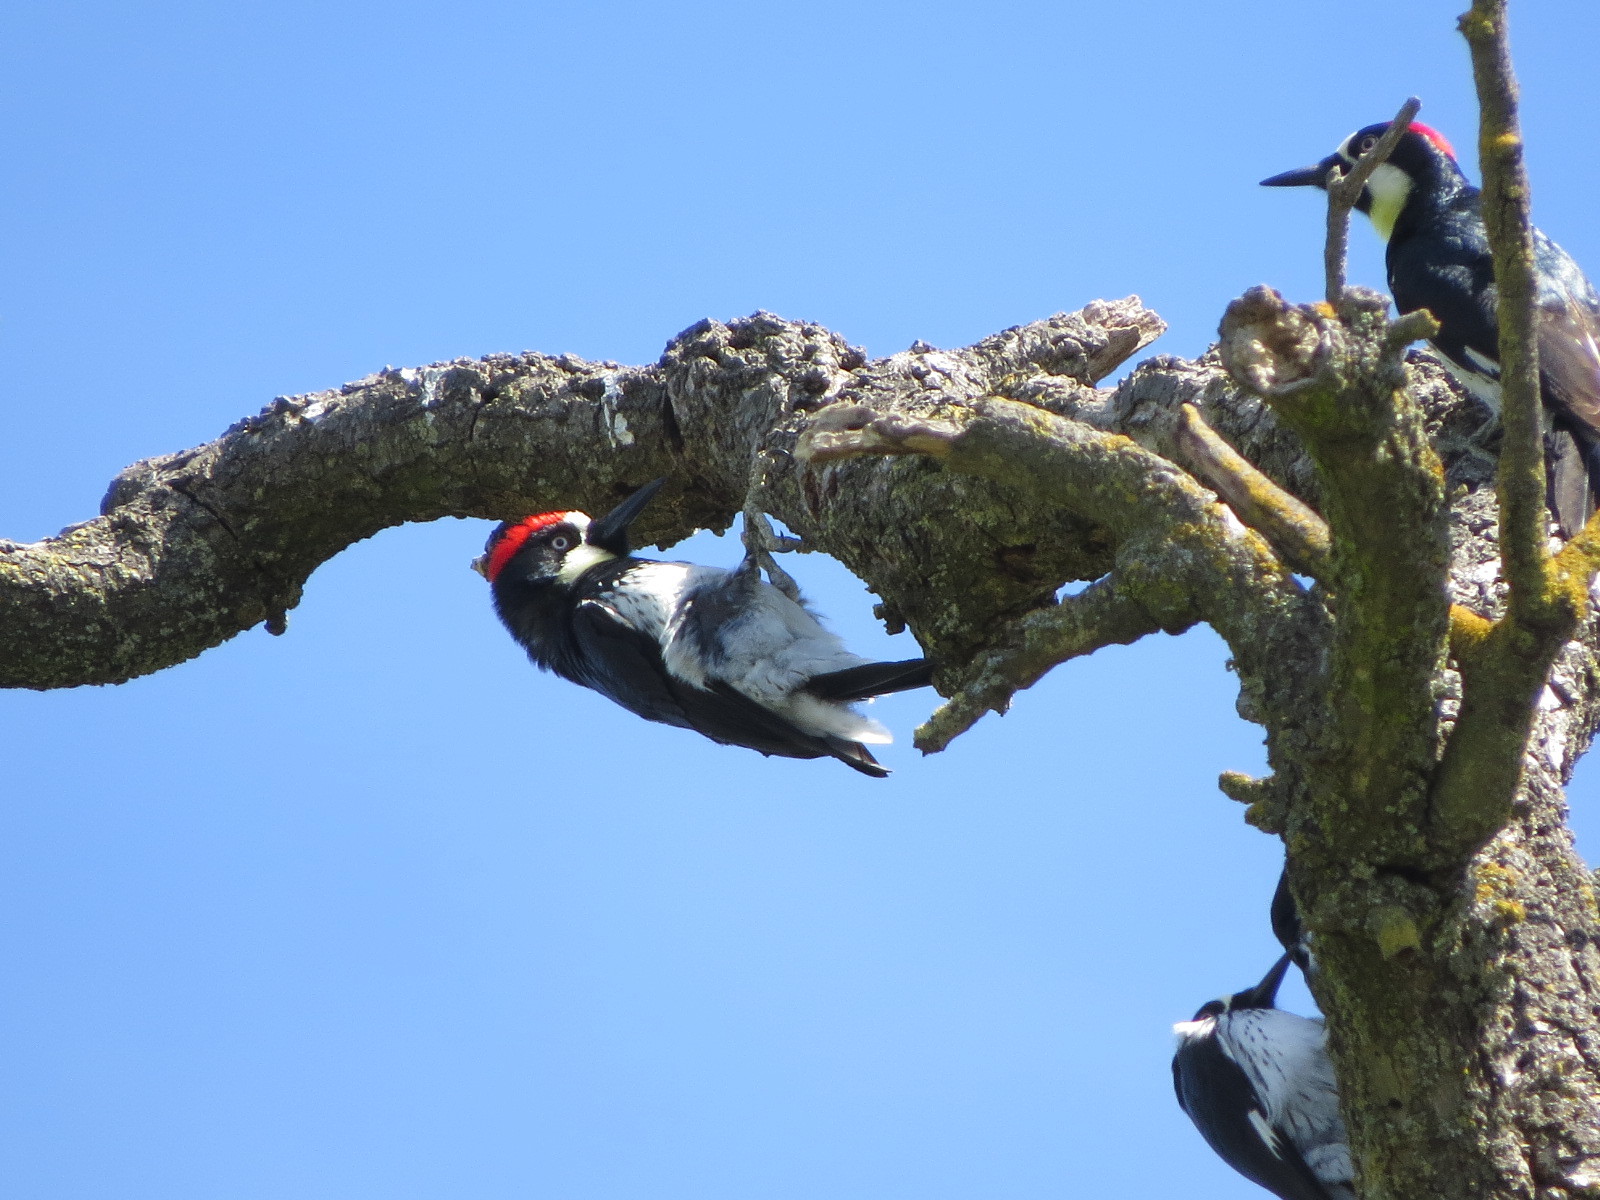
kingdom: Animalia
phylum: Chordata
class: Aves
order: Piciformes
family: Picidae
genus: Melanerpes
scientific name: Melanerpes formicivorus
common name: Acorn woodpecker
